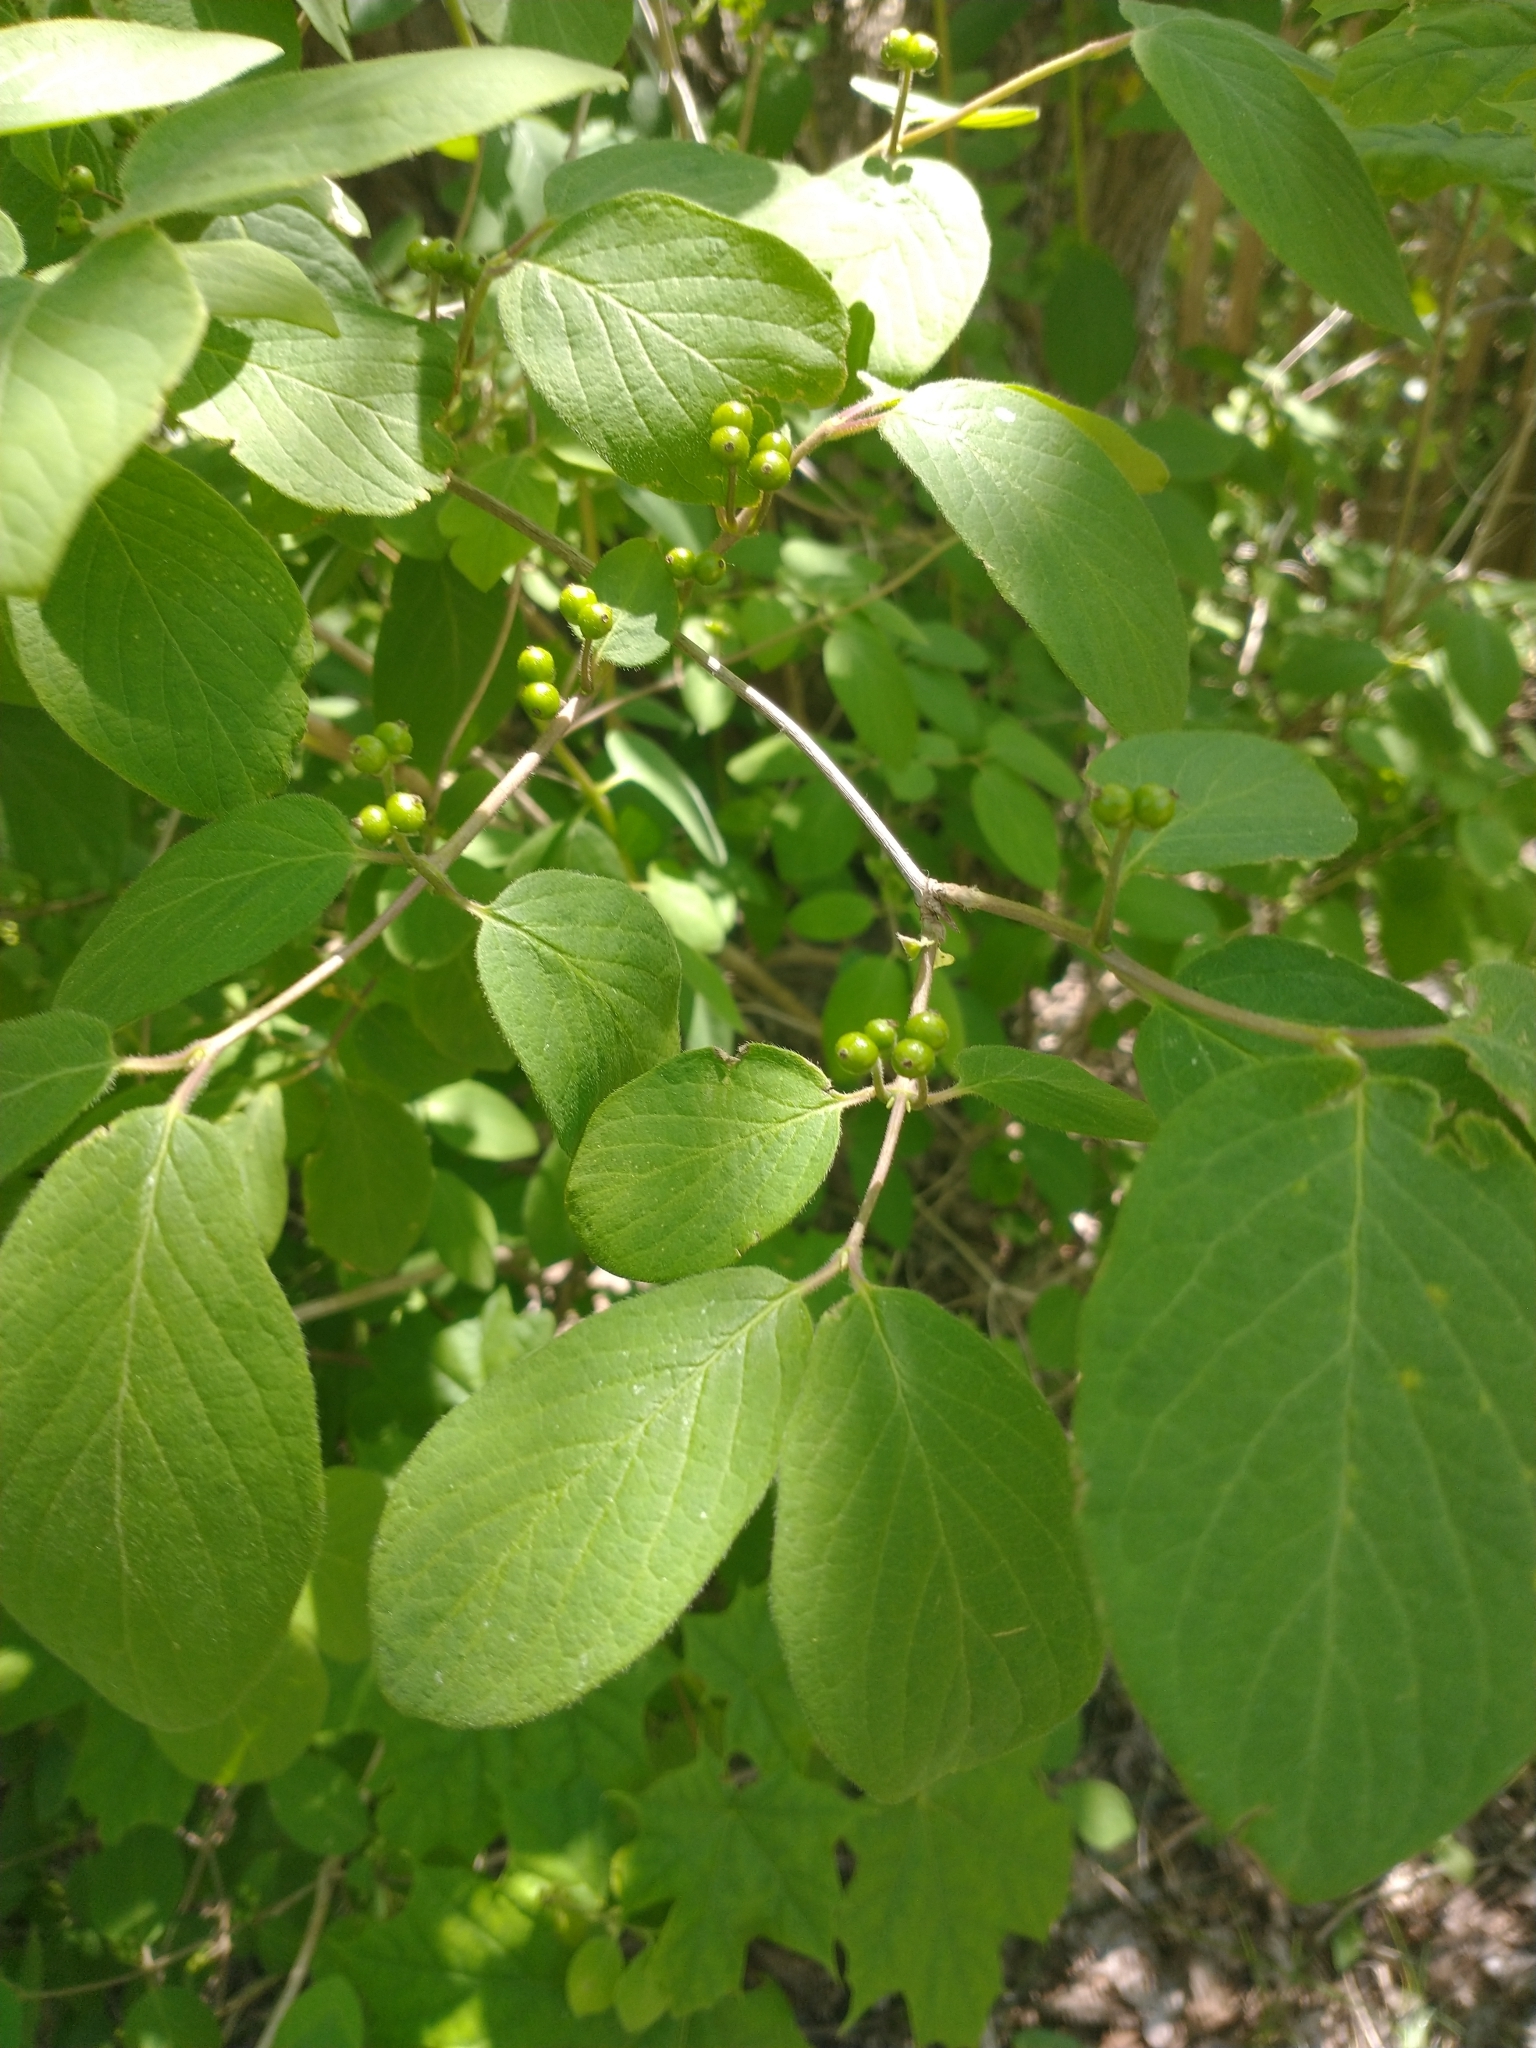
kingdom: Plantae
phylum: Tracheophyta
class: Magnoliopsida
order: Dipsacales
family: Caprifoliaceae
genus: Lonicera
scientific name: Lonicera xylosteum
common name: Fly honeysuckle
